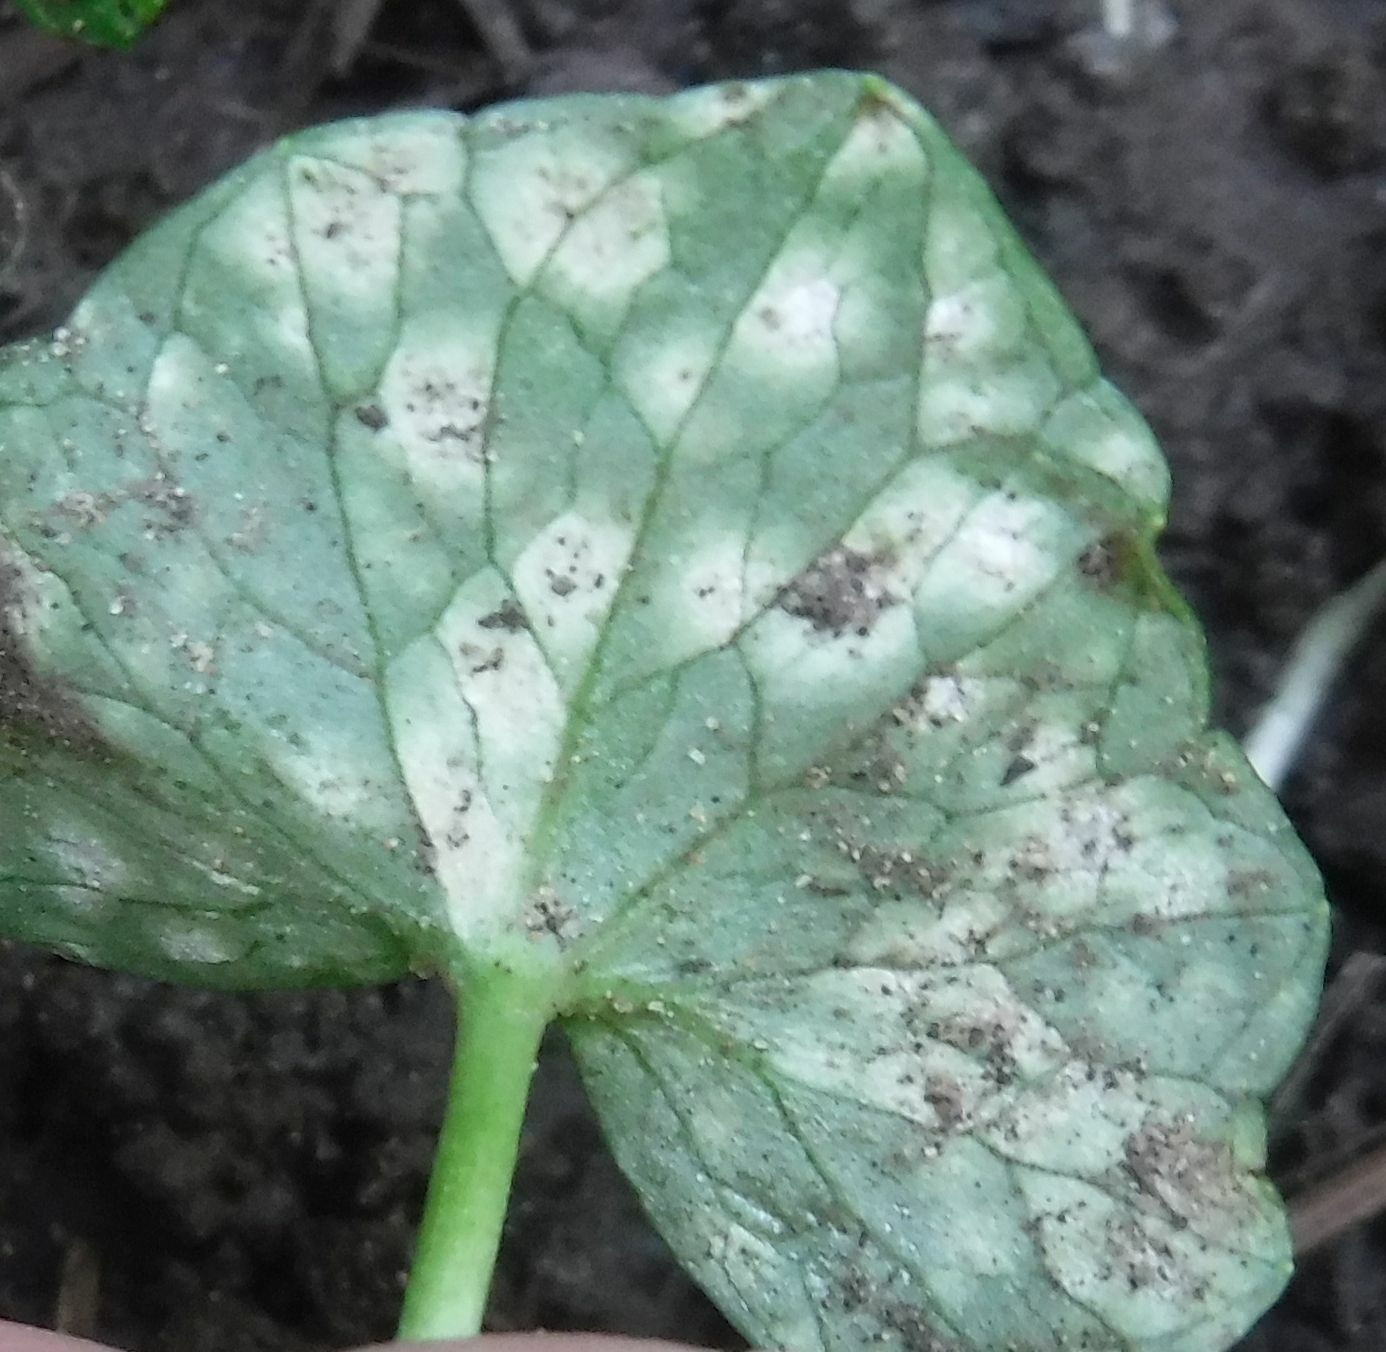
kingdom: Fungi
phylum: Basidiomycota
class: Exobasidiomycetes
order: Entylomatales
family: Entylomataceae
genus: Entyloma
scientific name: Entyloma ficariae
